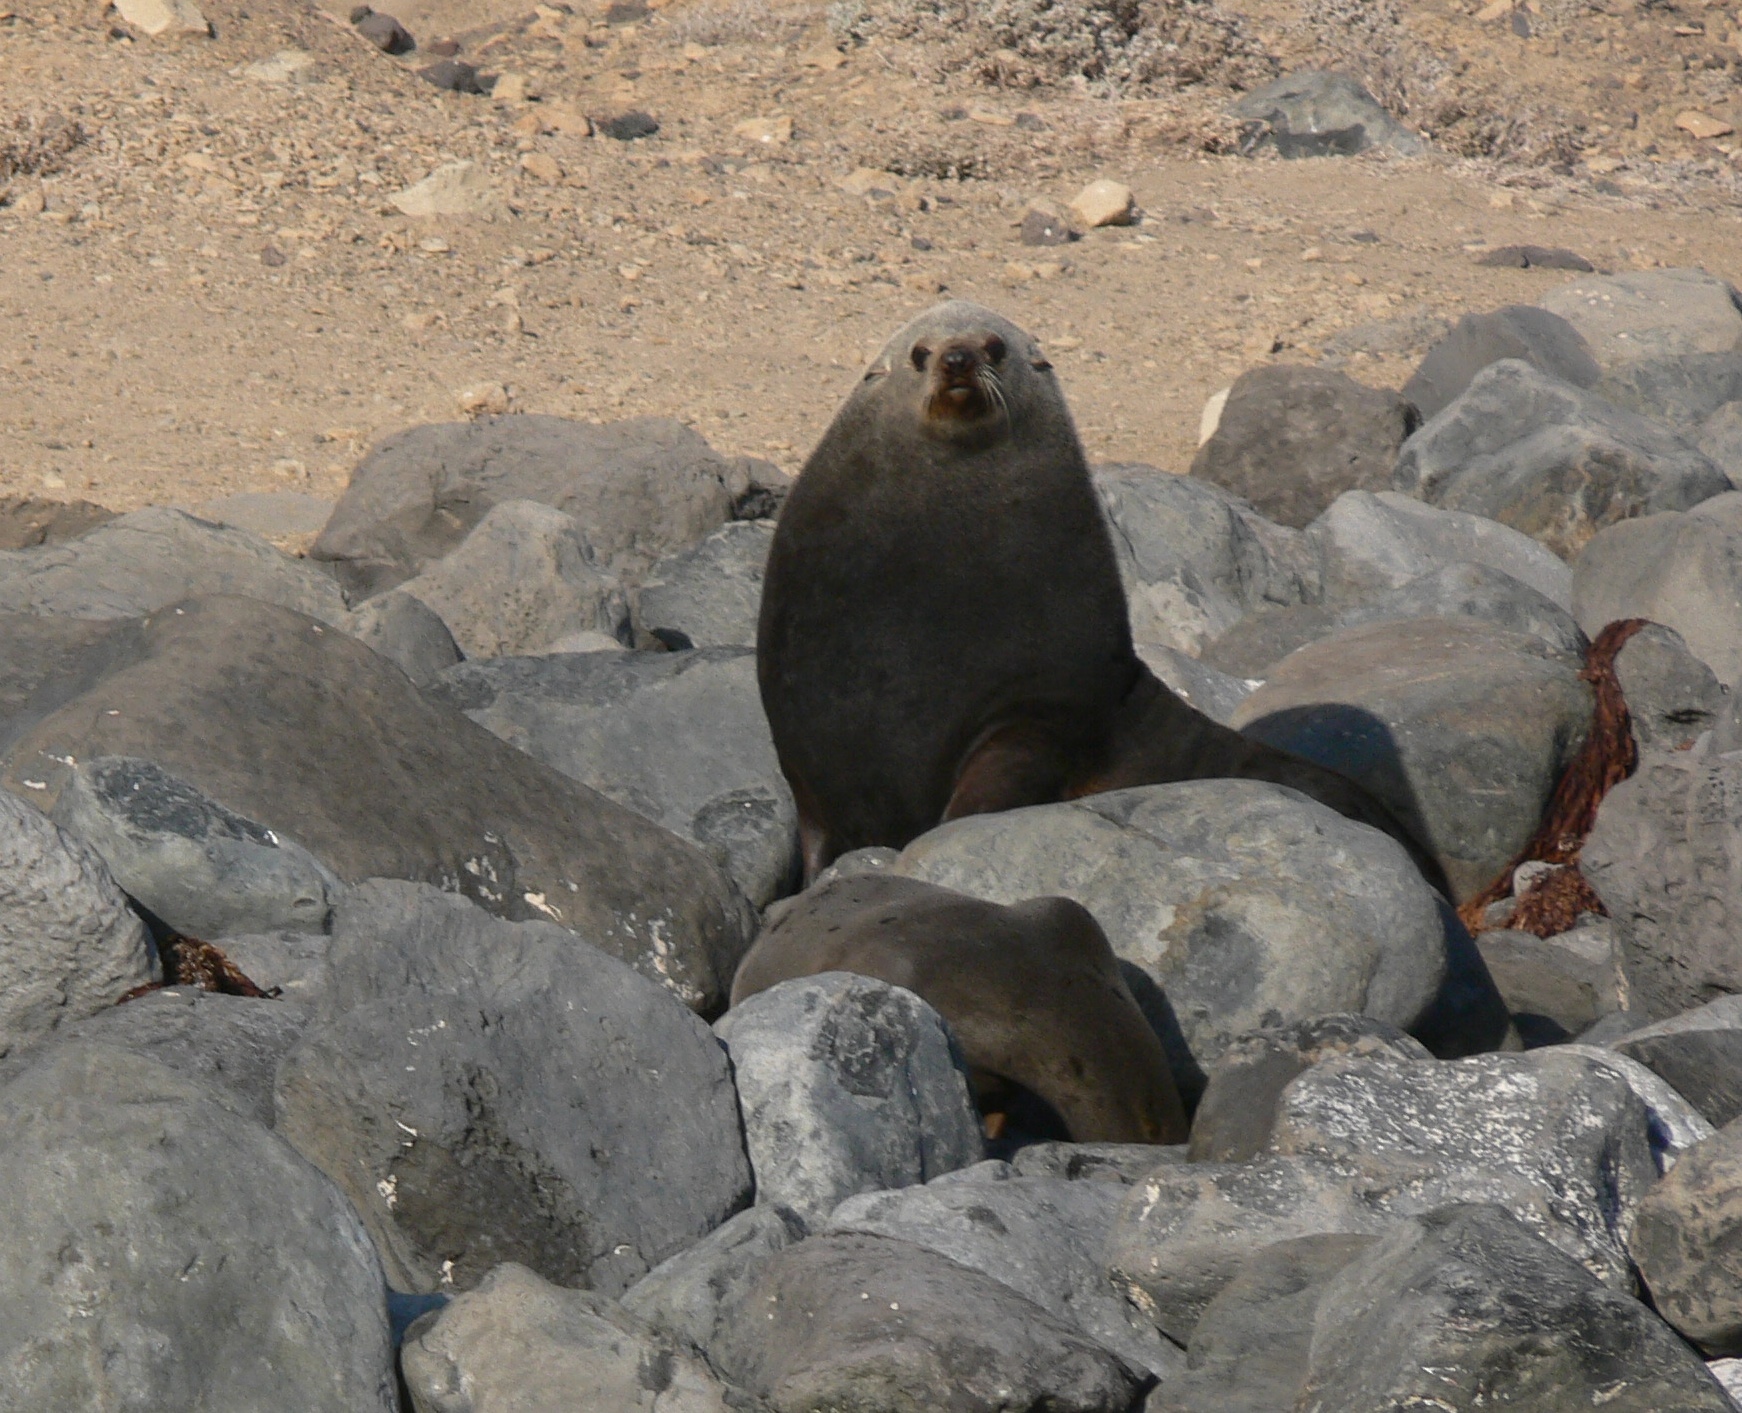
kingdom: Animalia
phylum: Chordata
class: Mammalia
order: Carnivora
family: Otariidae
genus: Arctocephalus
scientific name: Arctocephalus philippii
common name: Juan fernández fur seal
